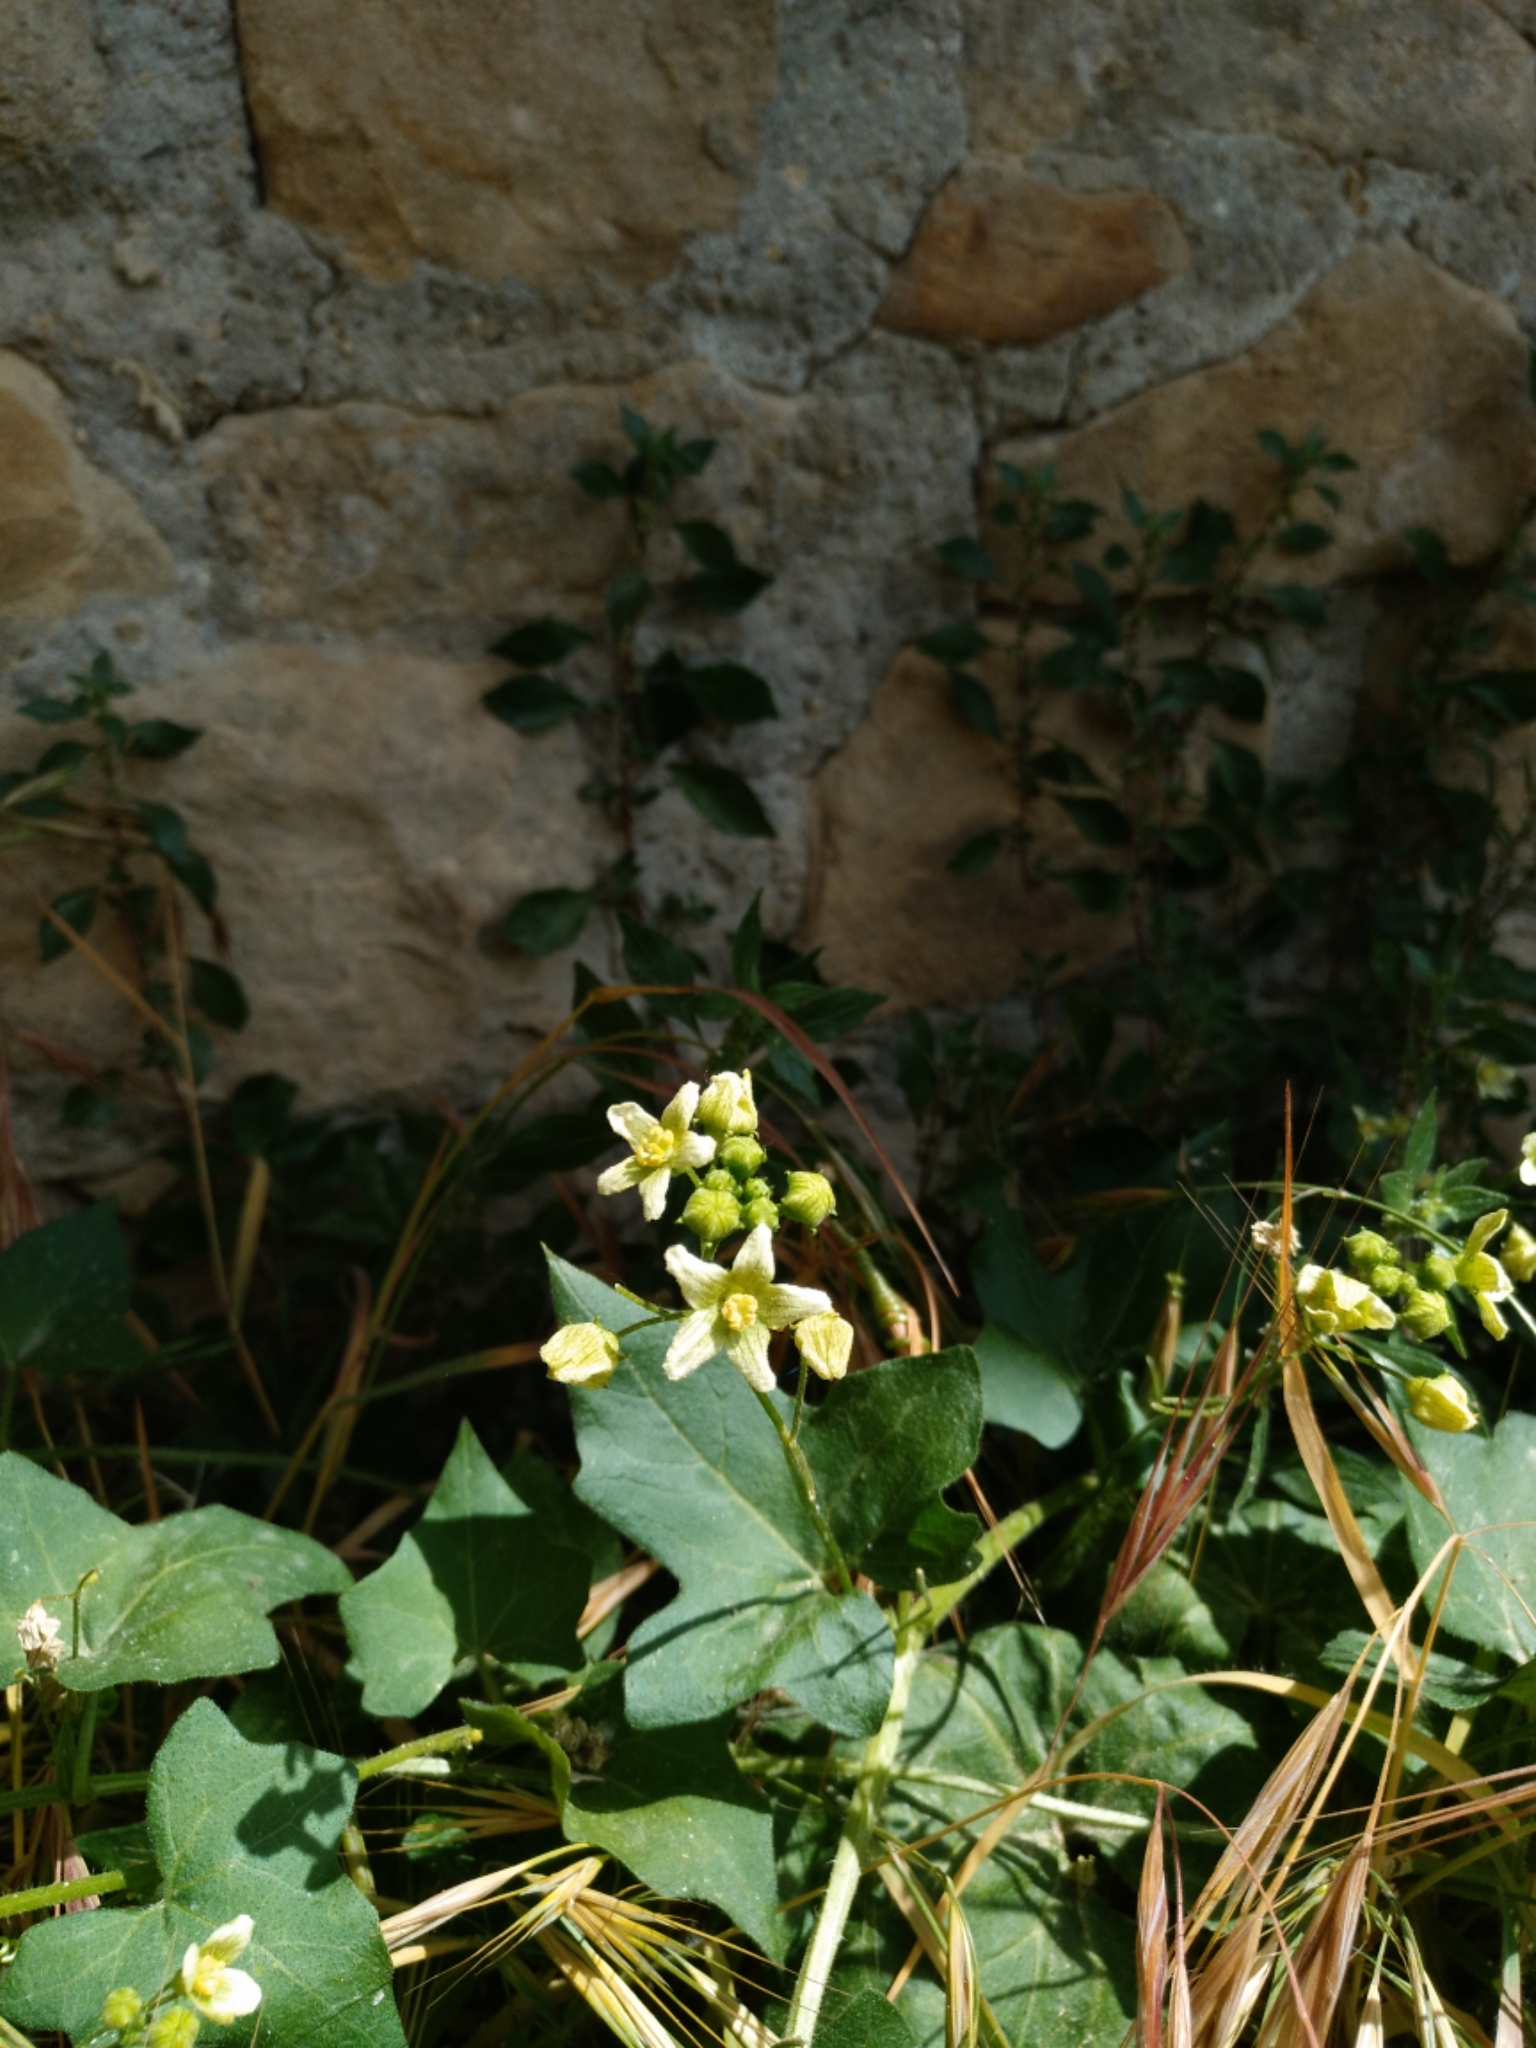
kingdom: Plantae
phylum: Tracheophyta
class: Magnoliopsida
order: Cucurbitales
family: Cucurbitaceae
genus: Bryonia
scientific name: Bryonia dioica
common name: White bryony
